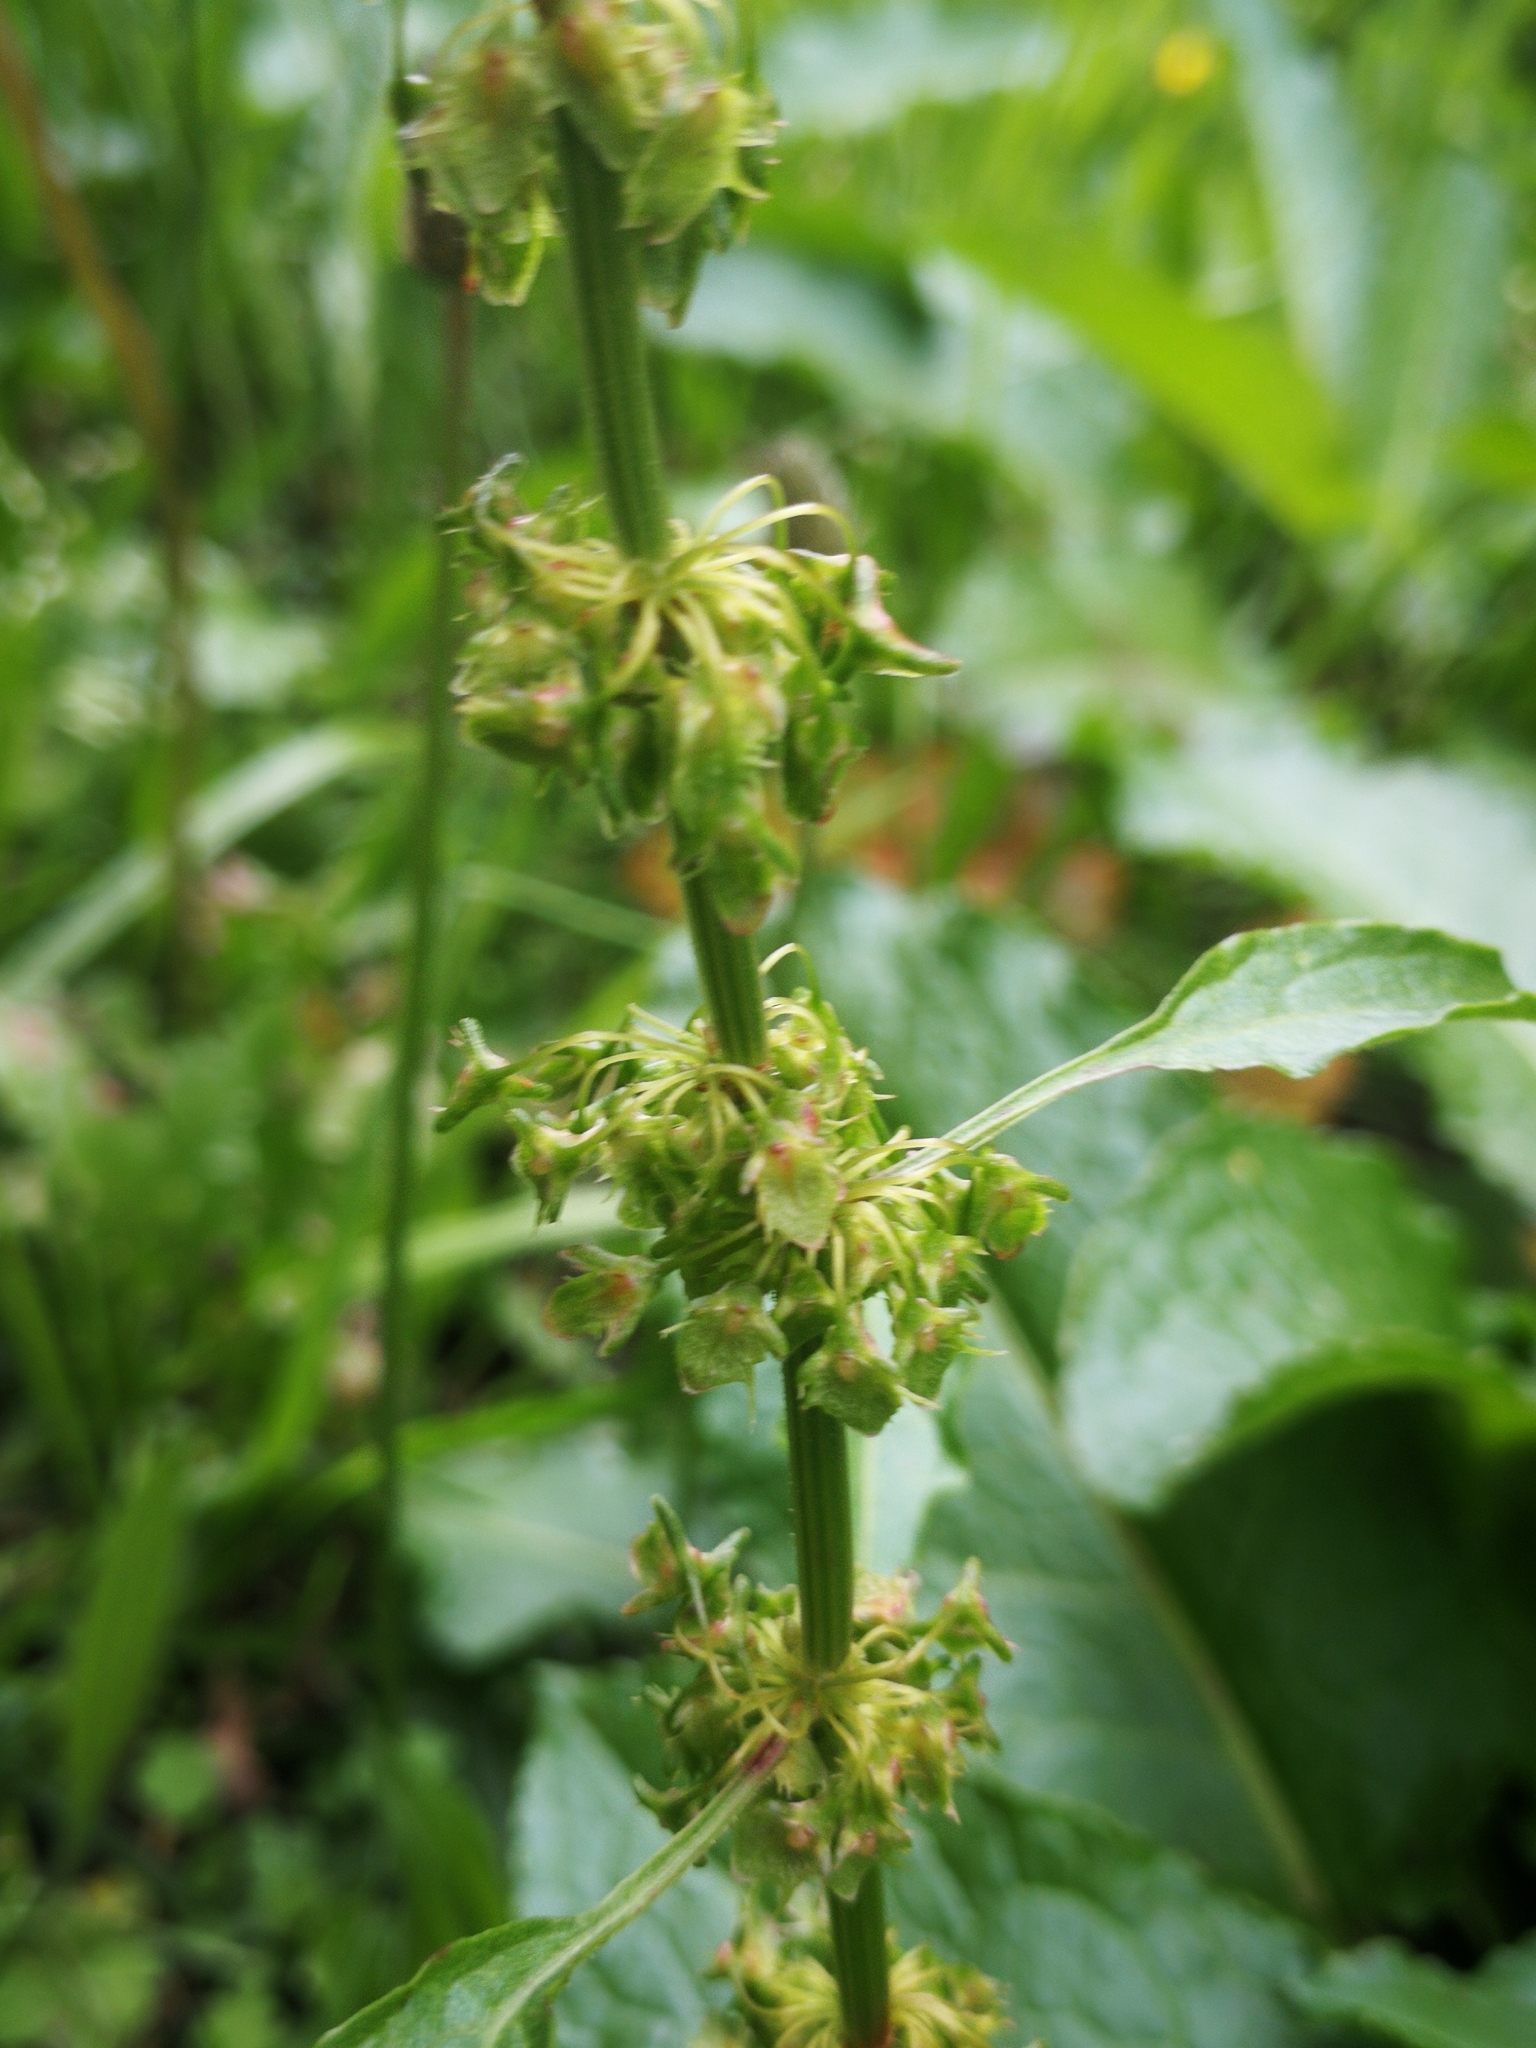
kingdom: Plantae
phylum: Tracheophyta
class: Magnoliopsida
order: Caryophyllales
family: Polygonaceae
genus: Rumex
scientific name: Rumex obtusifolius
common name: Bitter dock
